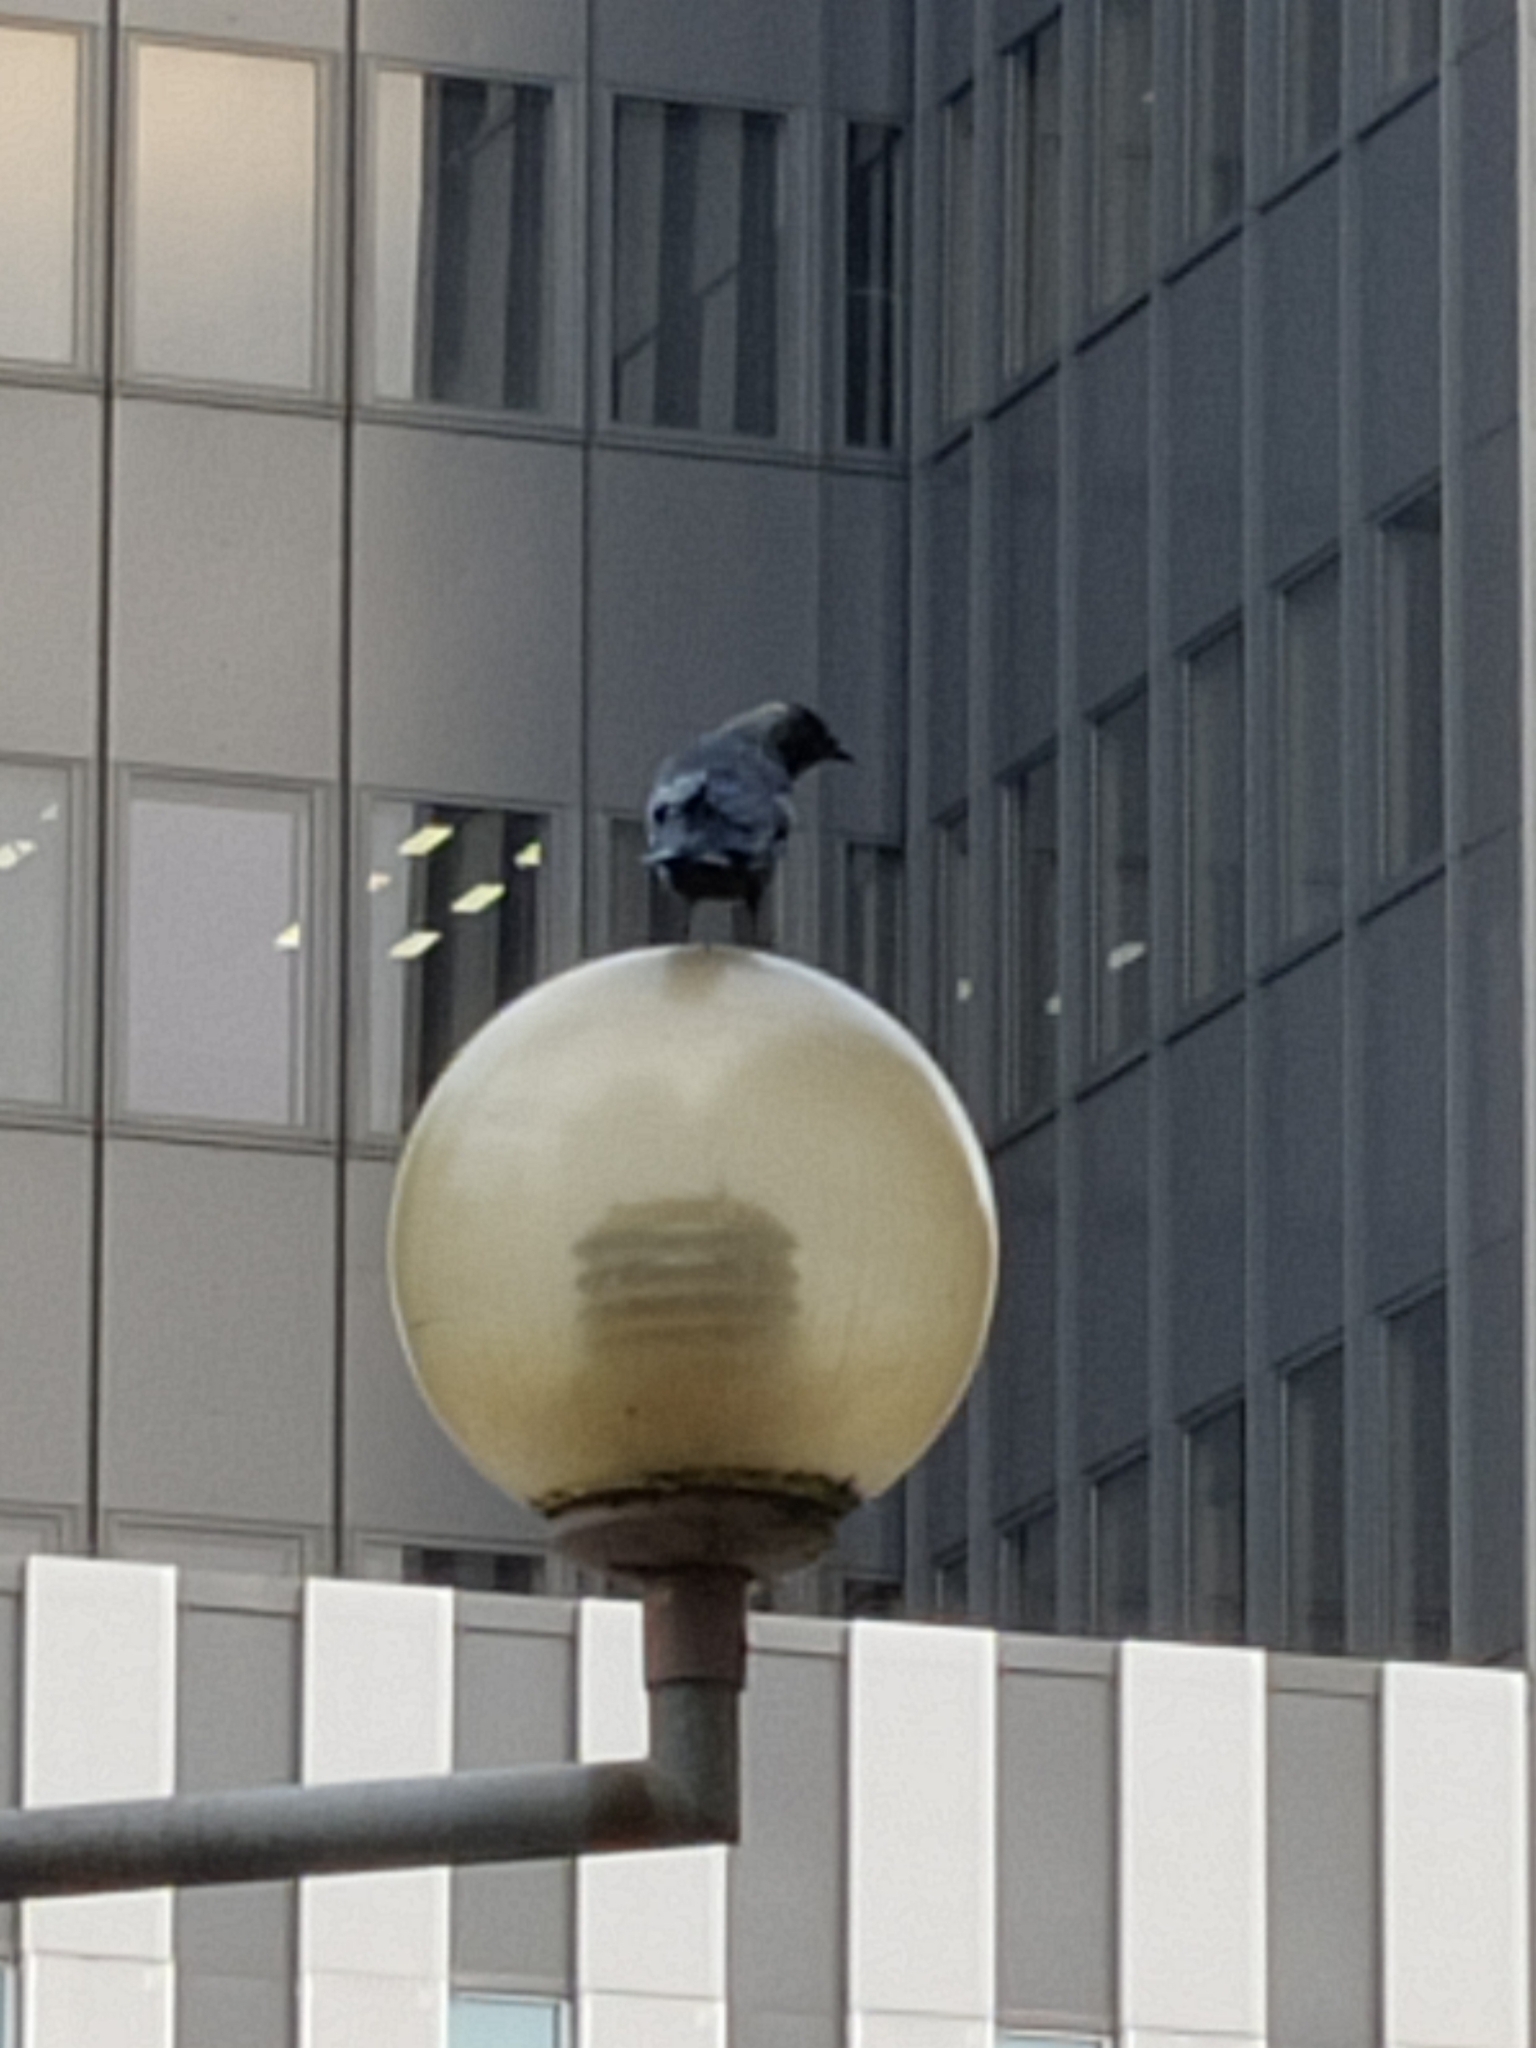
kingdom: Animalia
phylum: Chordata
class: Aves
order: Passeriformes
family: Corvidae
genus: Coloeus
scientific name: Coloeus monedula
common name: Western jackdaw
